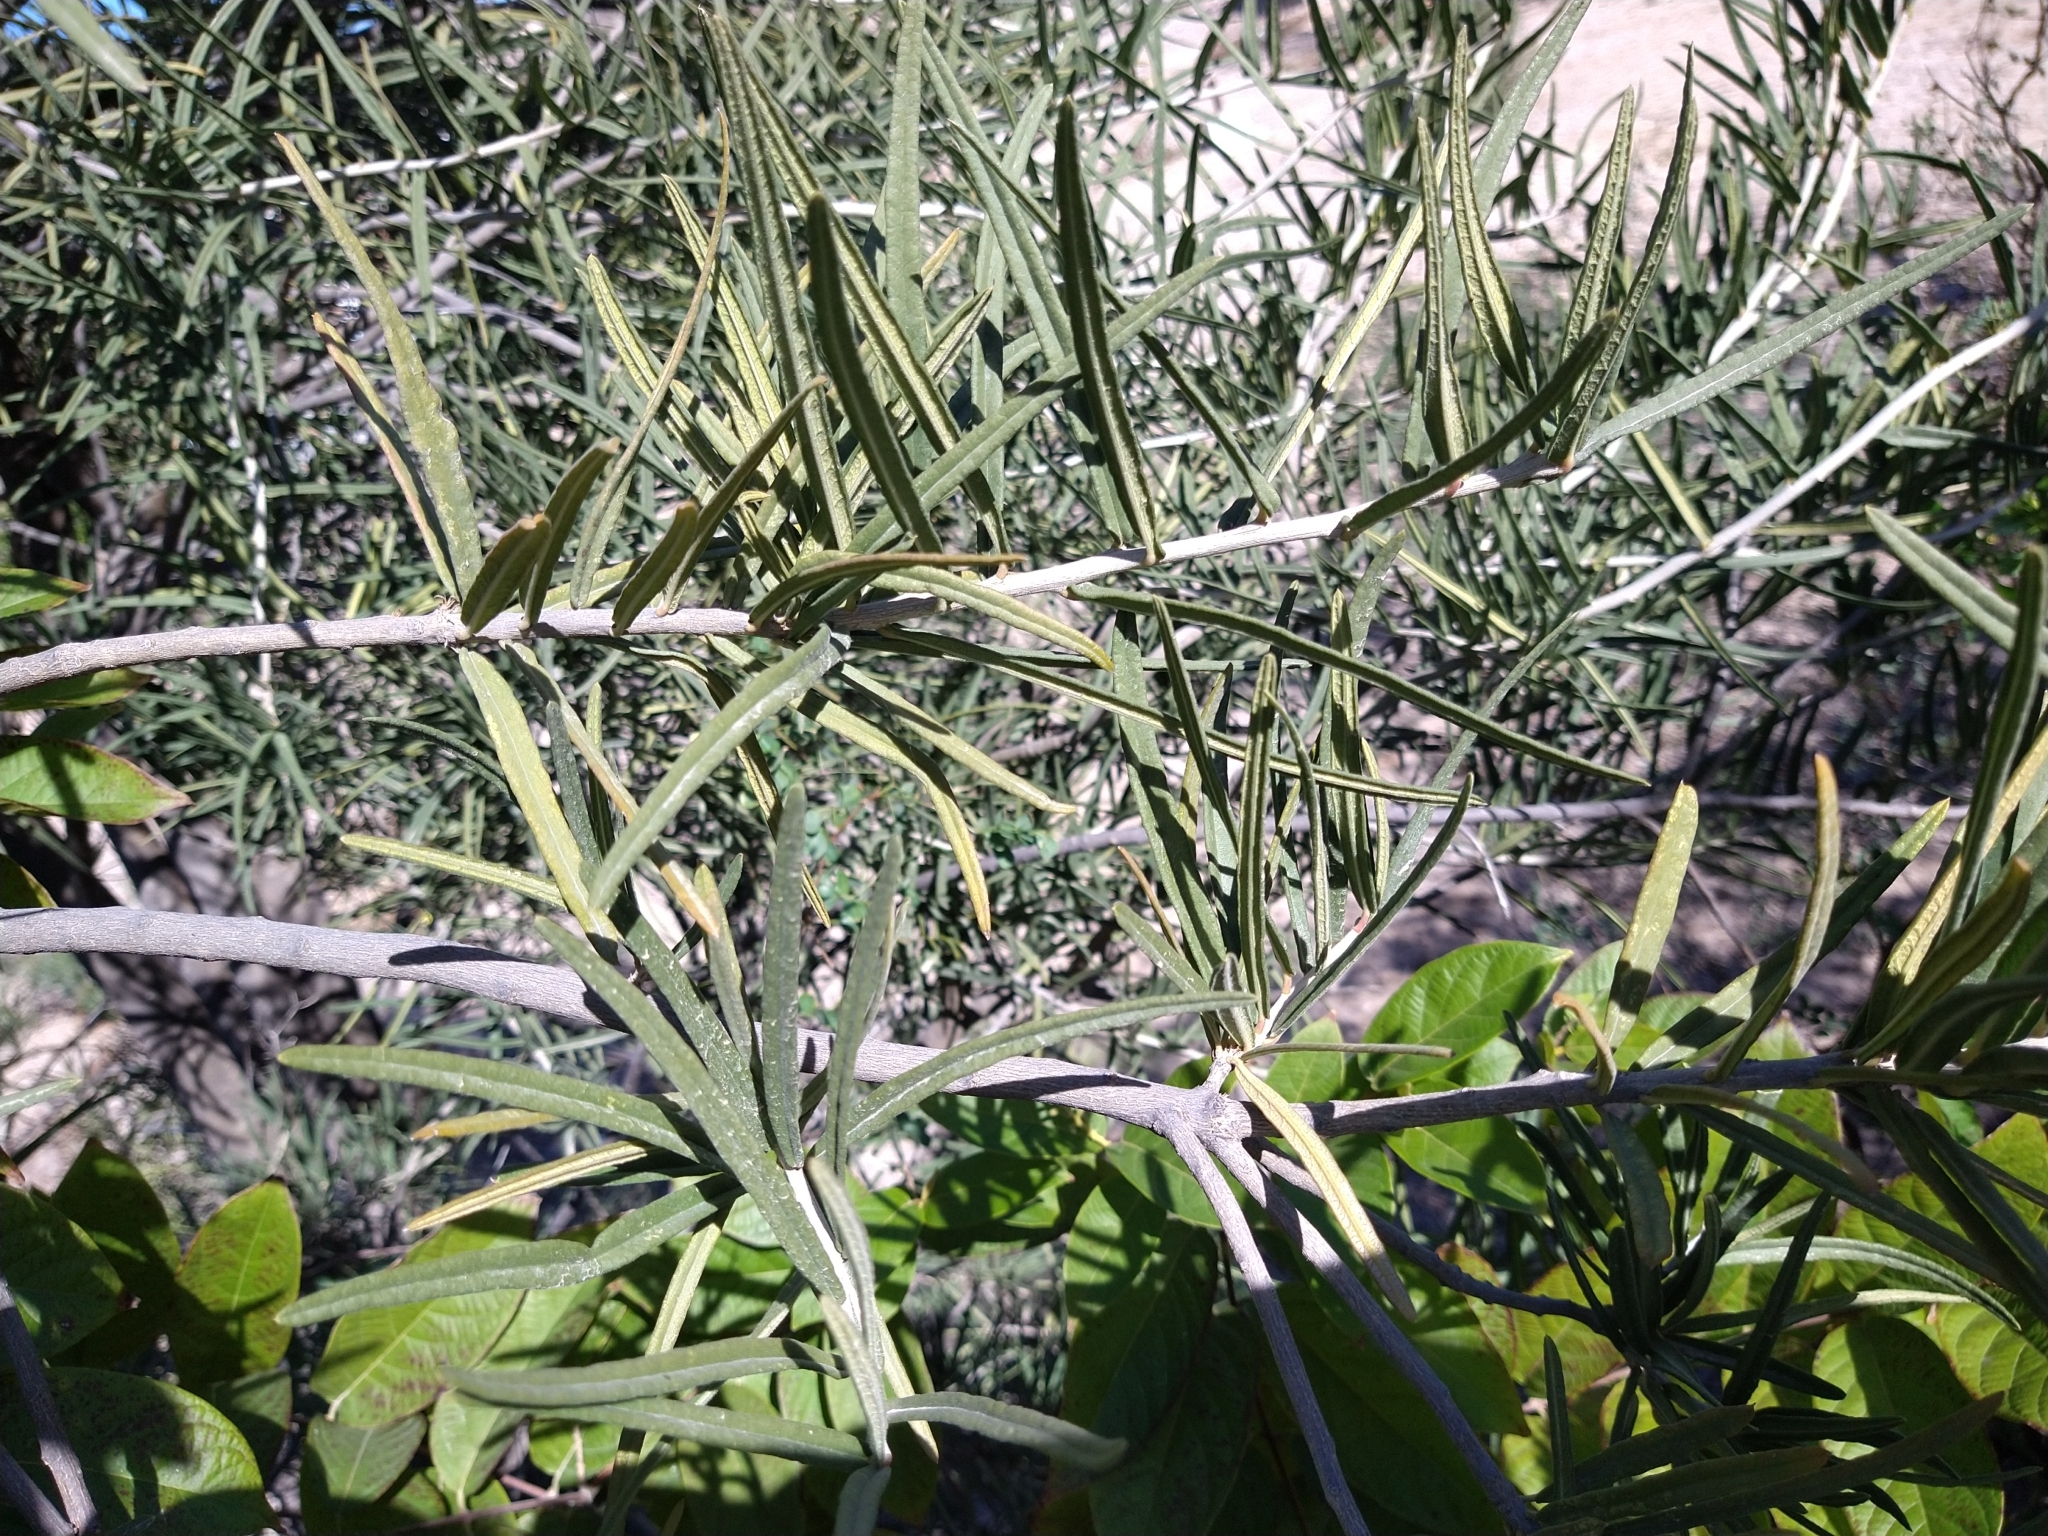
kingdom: Plantae
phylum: Tracheophyta
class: Magnoliopsida
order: Brassicales
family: Stixaceae
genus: Forchhammeria
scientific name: Forchhammeria watsonii
